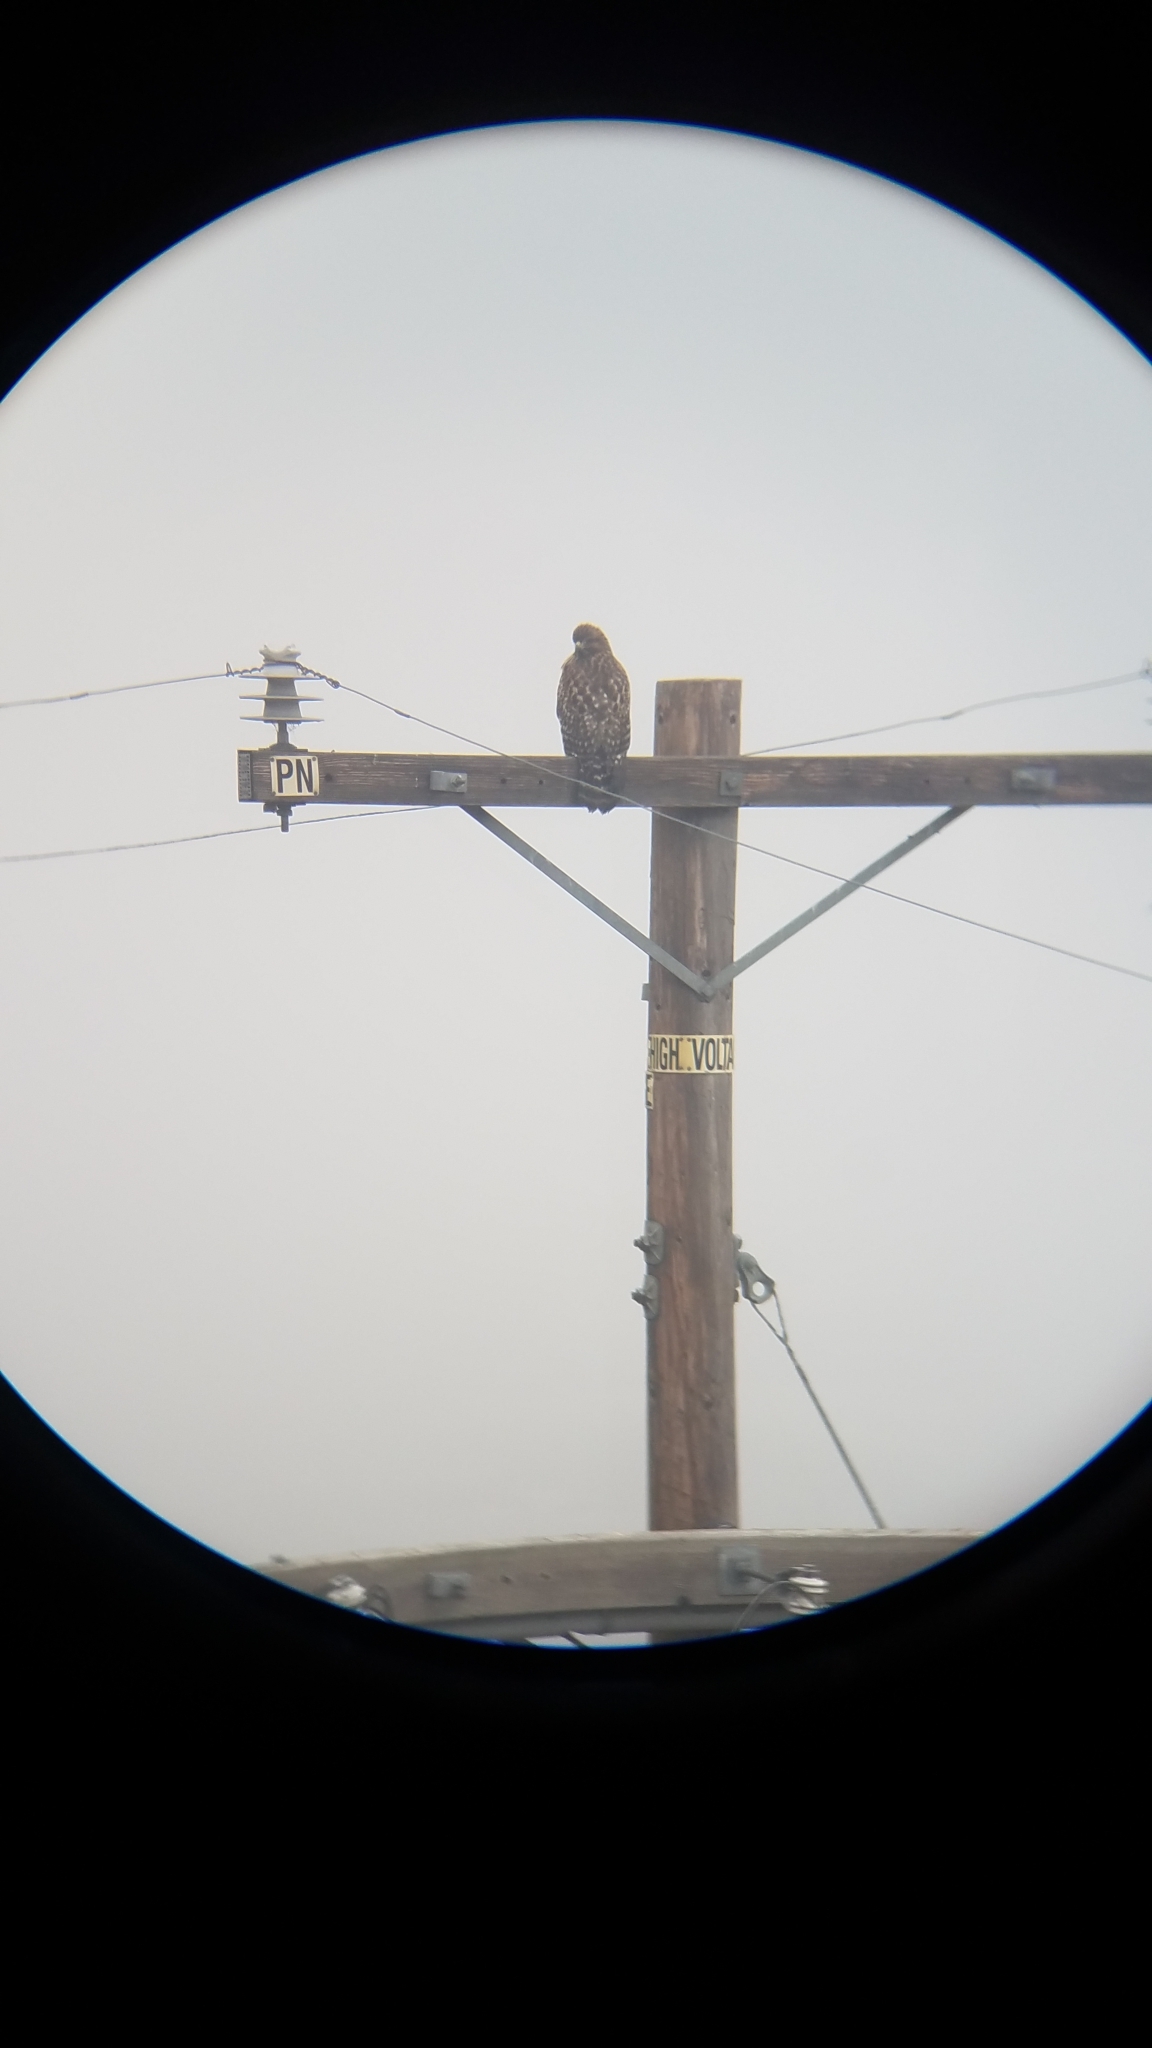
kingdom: Animalia
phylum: Chordata
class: Aves
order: Accipitriformes
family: Accipitridae
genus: Buteo
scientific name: Buteo lineatus
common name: Red-shouldered hawk
